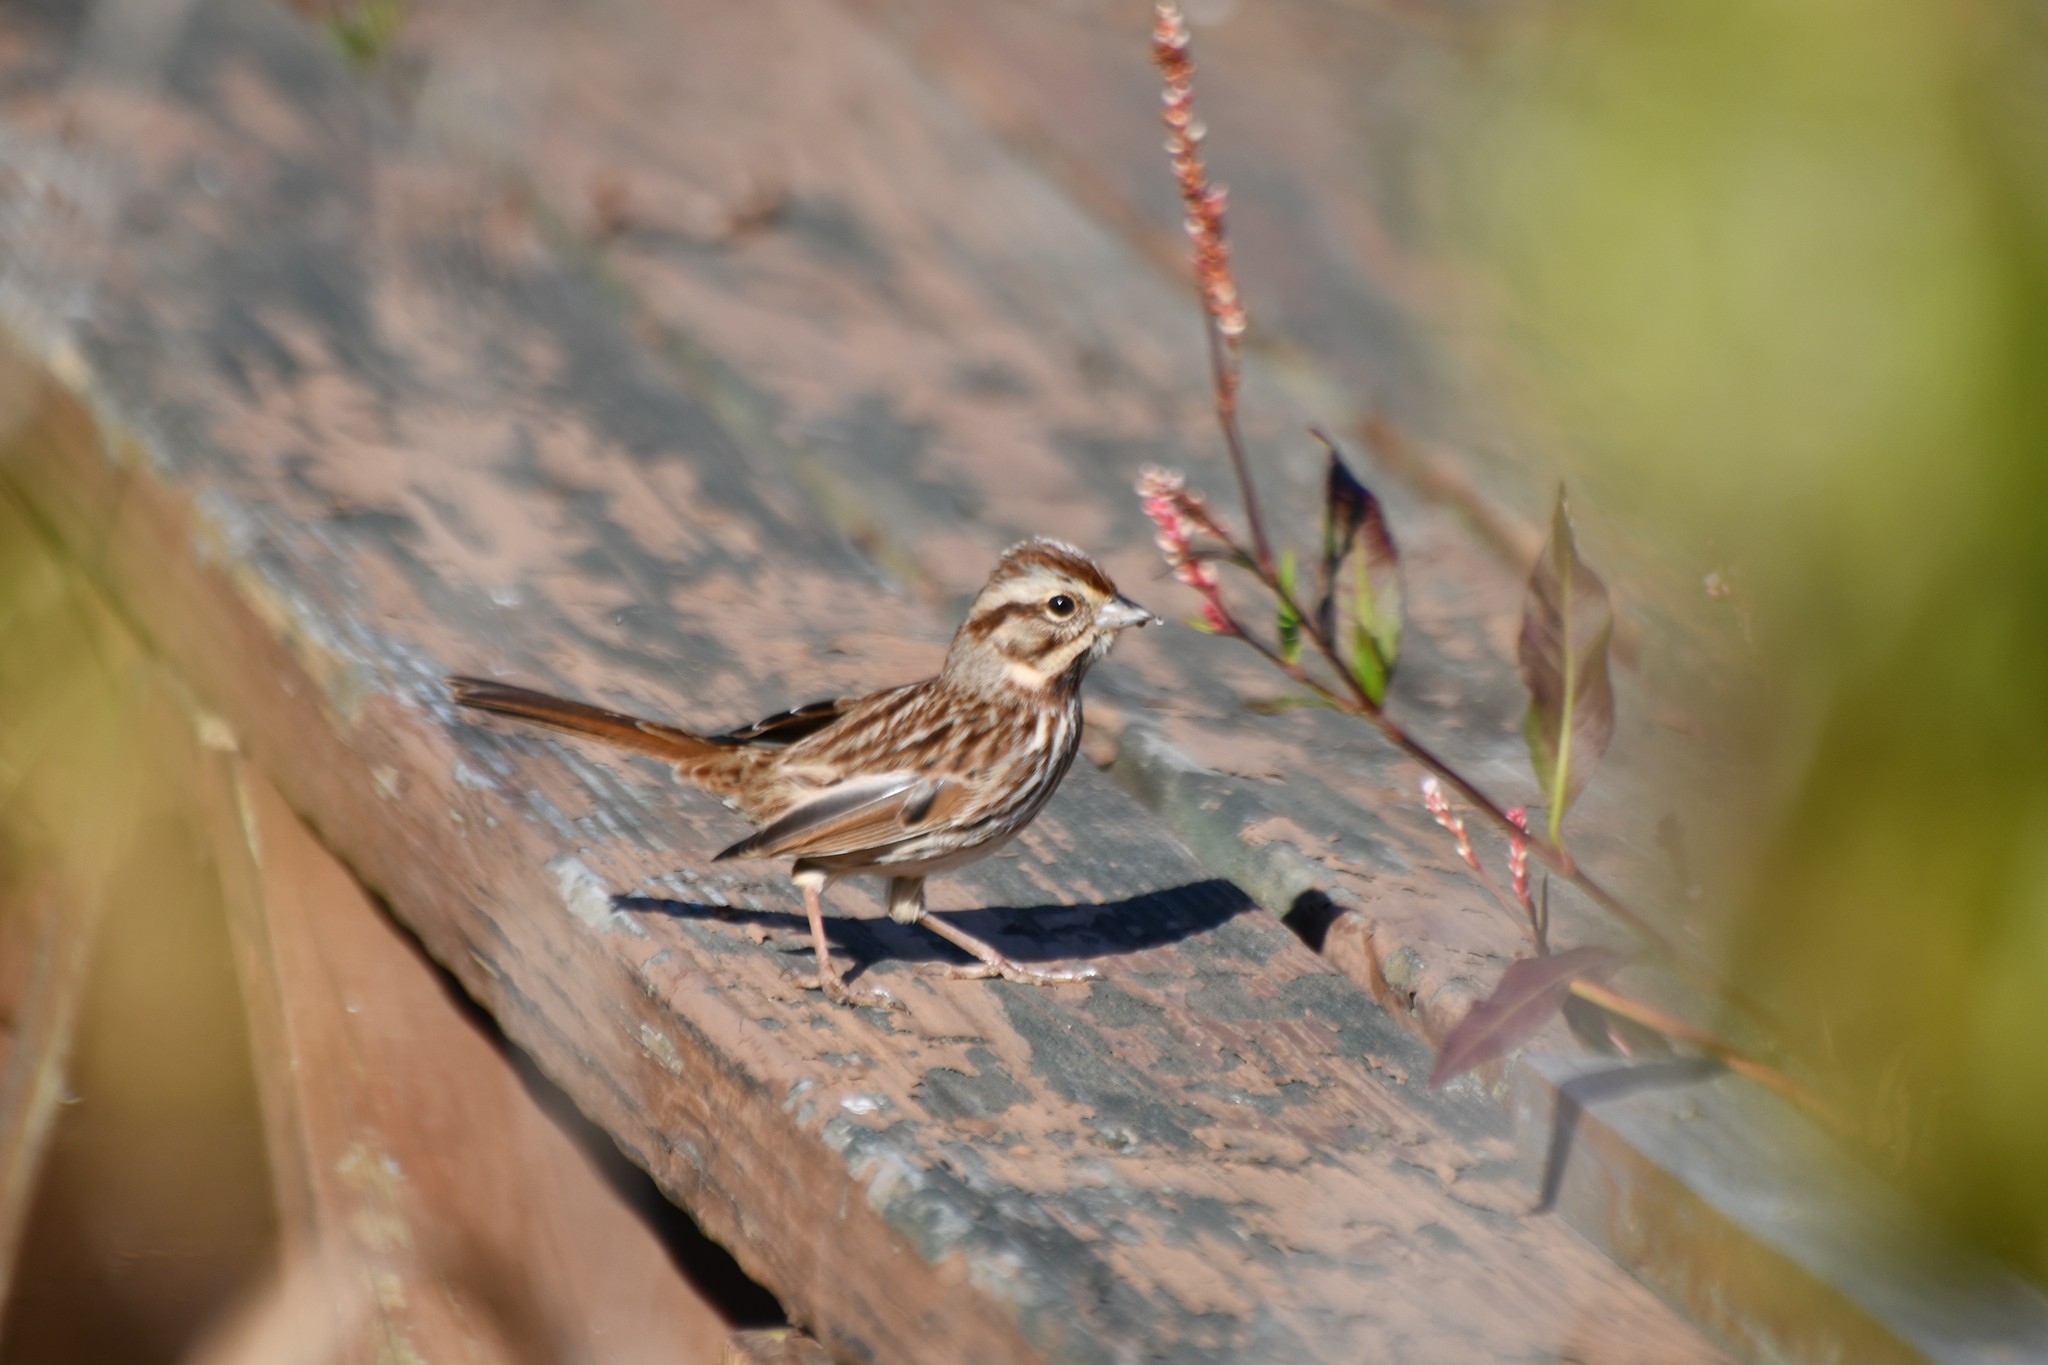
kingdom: Animalia
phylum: Chordata
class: Aves
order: Passeriformes
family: Passerellidae
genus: Melospiza
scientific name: Melospiza melodia
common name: Song sparrow
